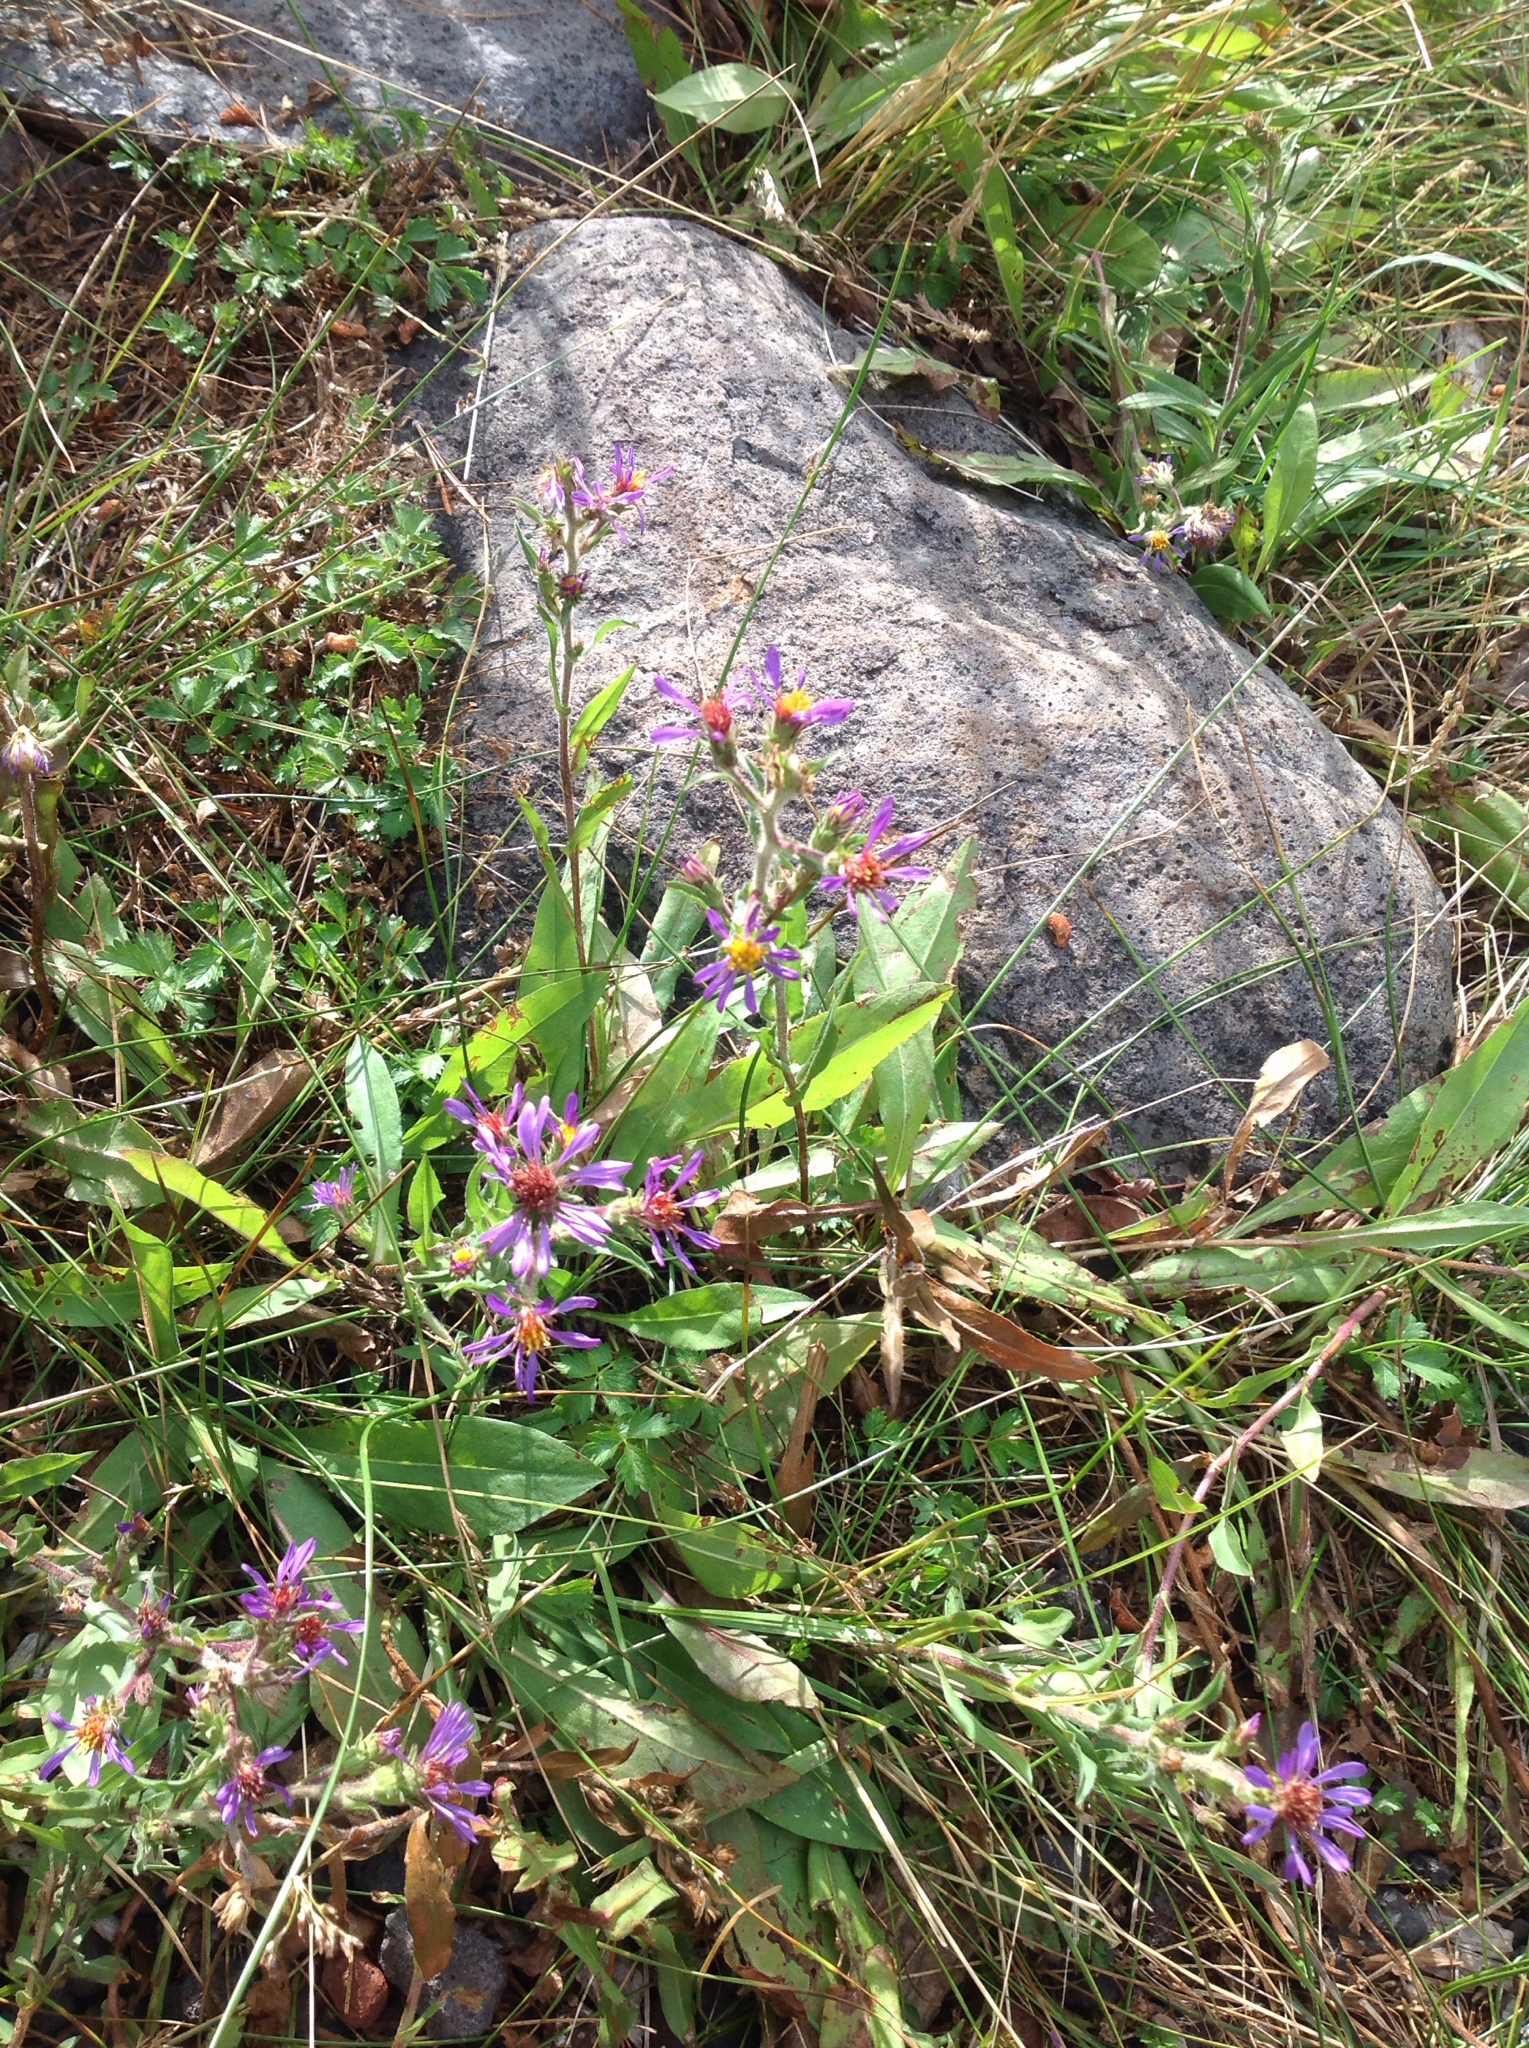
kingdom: Plantae
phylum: Tracheophyta
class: Magnoliopsida
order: Asterales
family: Asteraceae
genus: Eurybia
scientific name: Eurybia integrifolia
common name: Thick-stem aster
